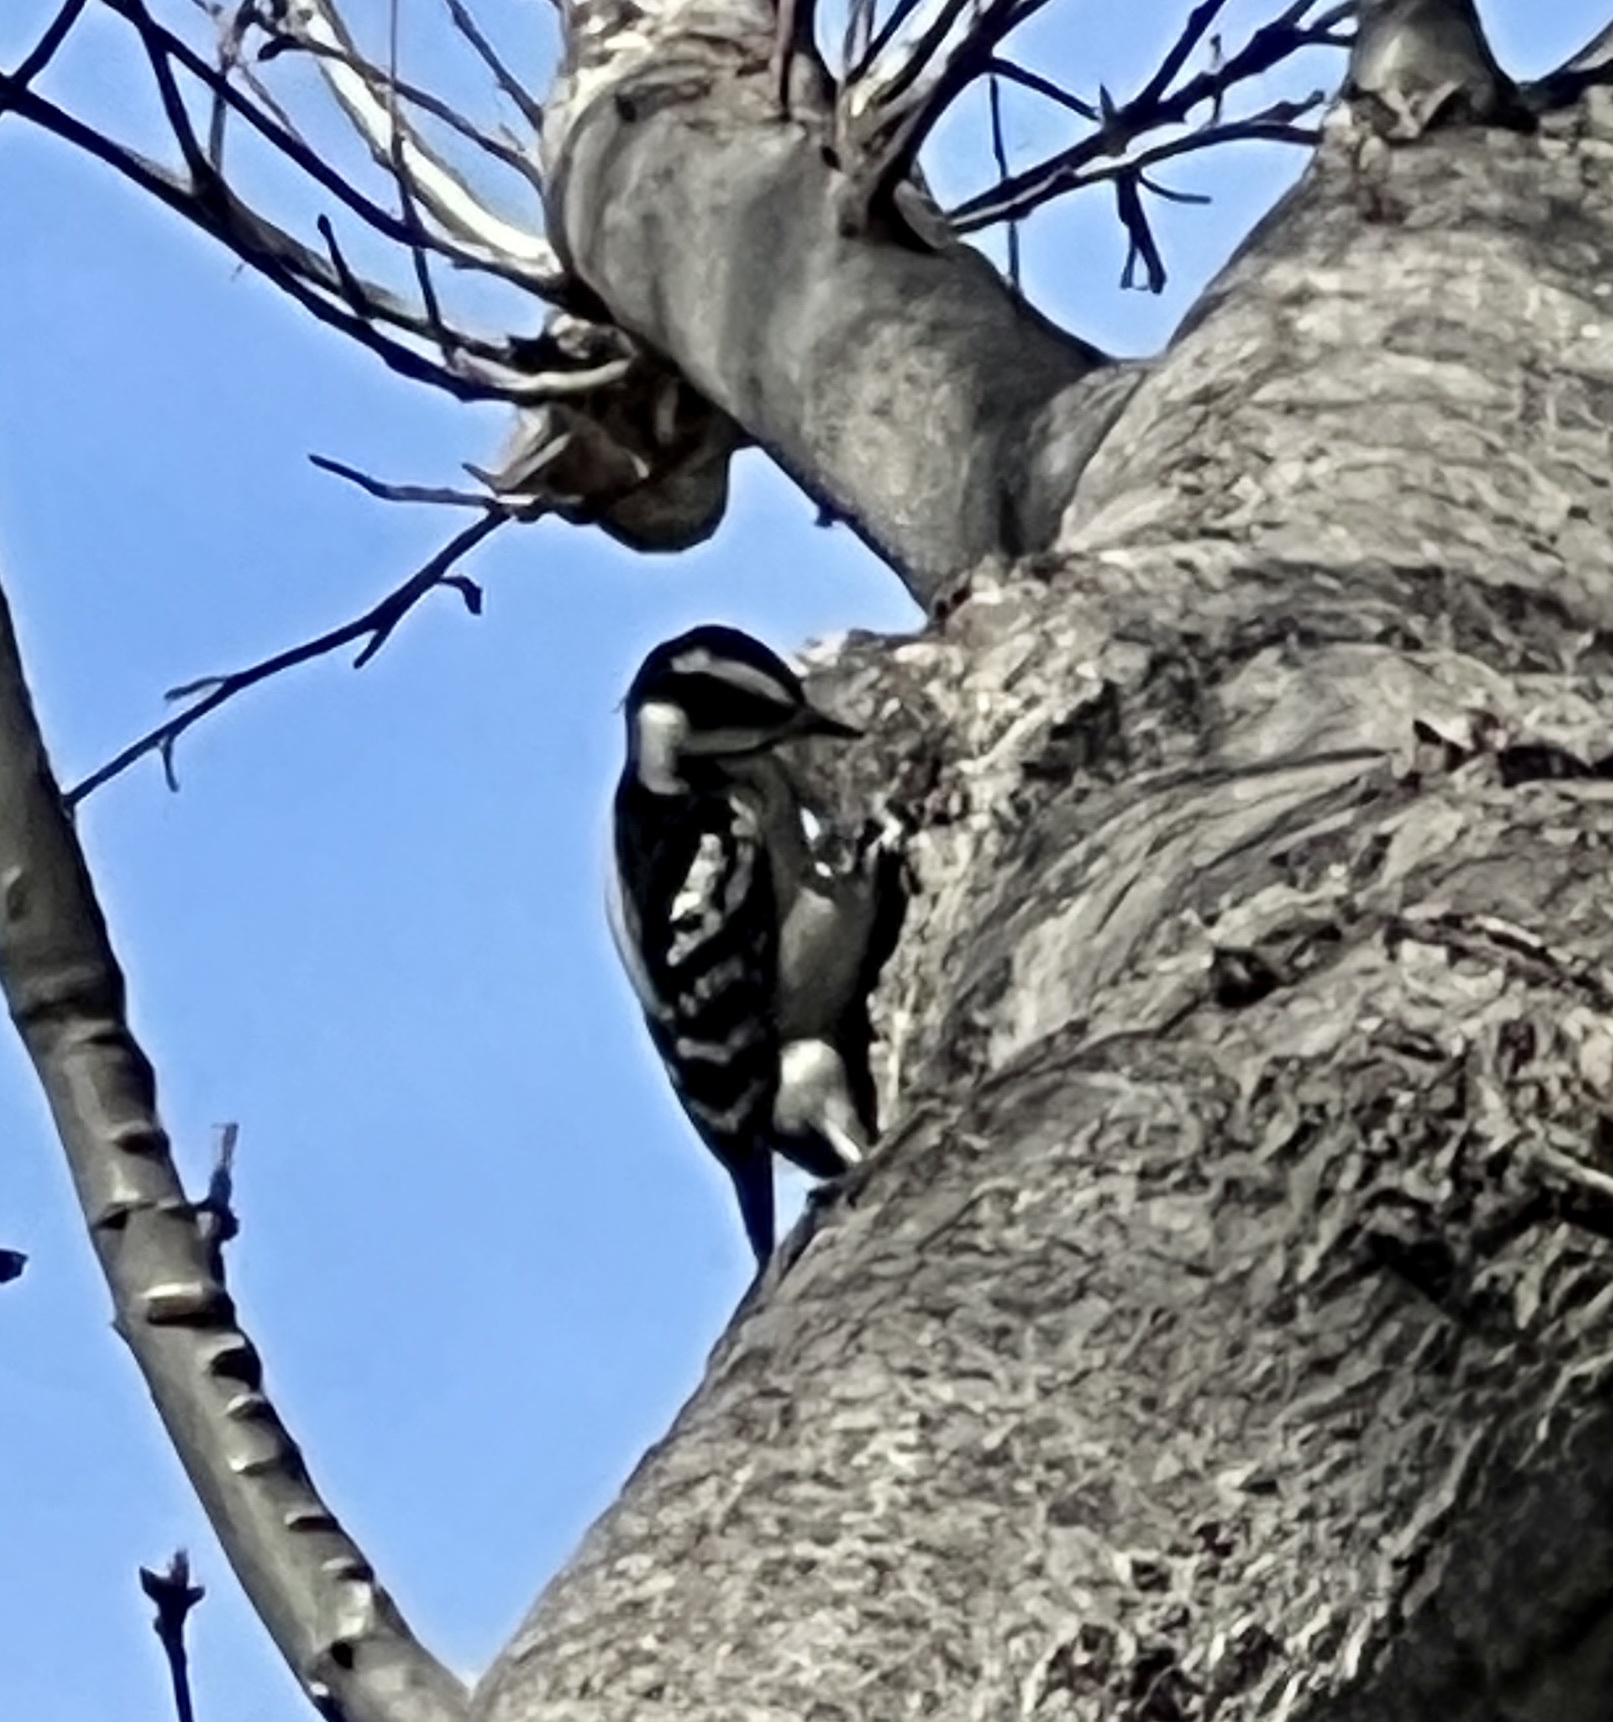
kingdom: Animalia
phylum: Chordata
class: Aves
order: Piciformes
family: Picidae
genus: Dryobates
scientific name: Dryobates pubescens
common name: Downy woodpecker
